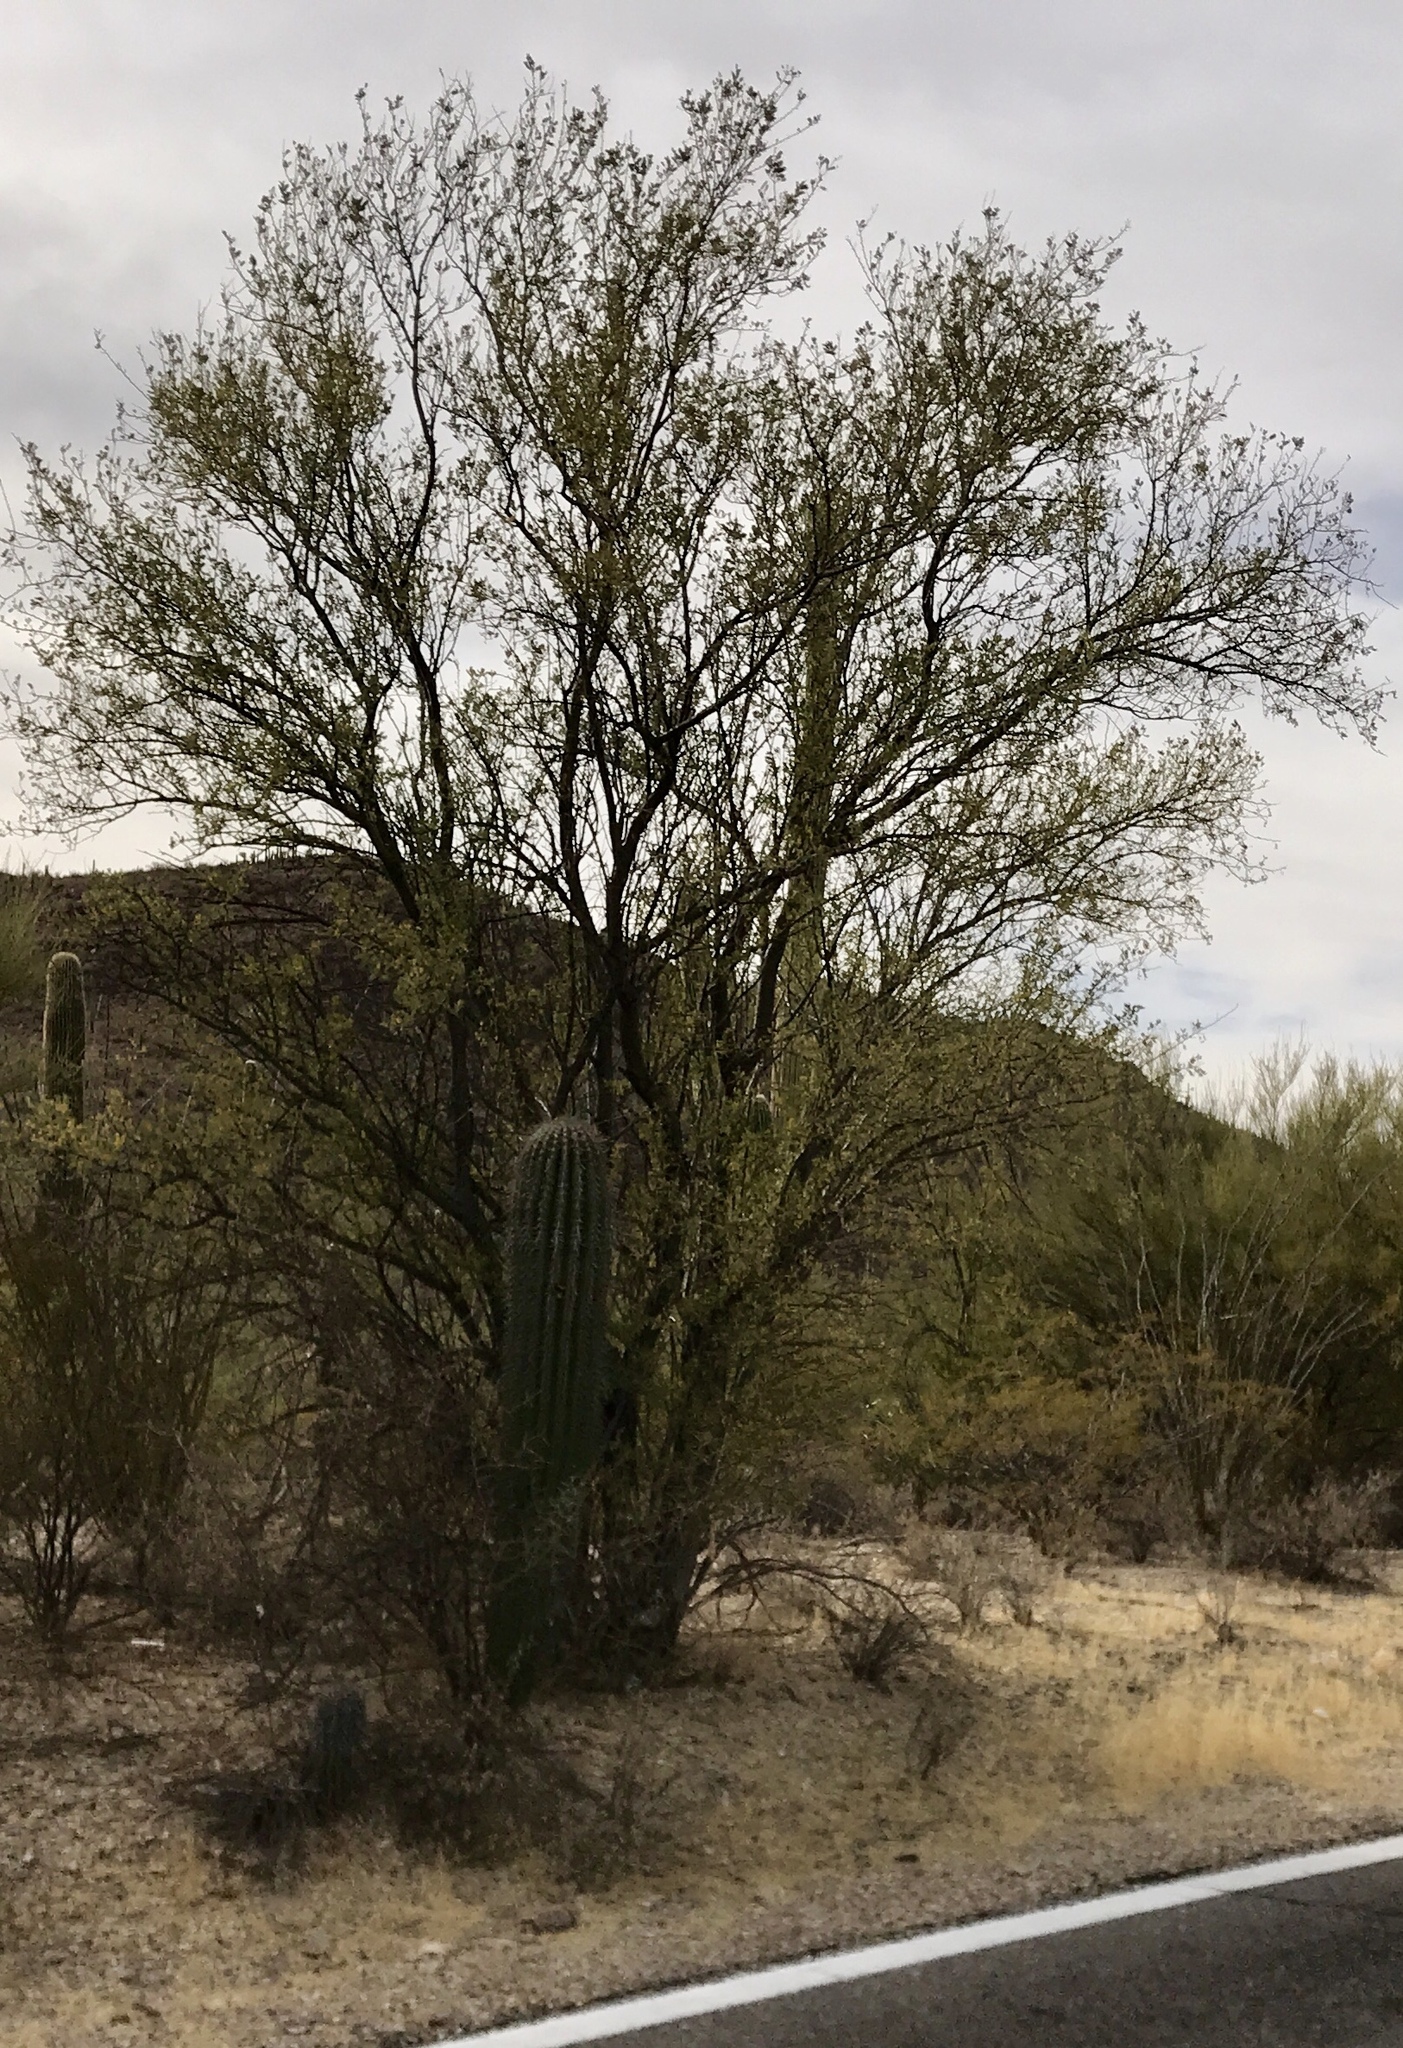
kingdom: Plantae
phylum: Tracheophyta
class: Magnoliopsida
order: Fabales
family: Fabaceae
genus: Parkinsonia
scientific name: Parkinsonia microphylla
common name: Yellow paloverde
